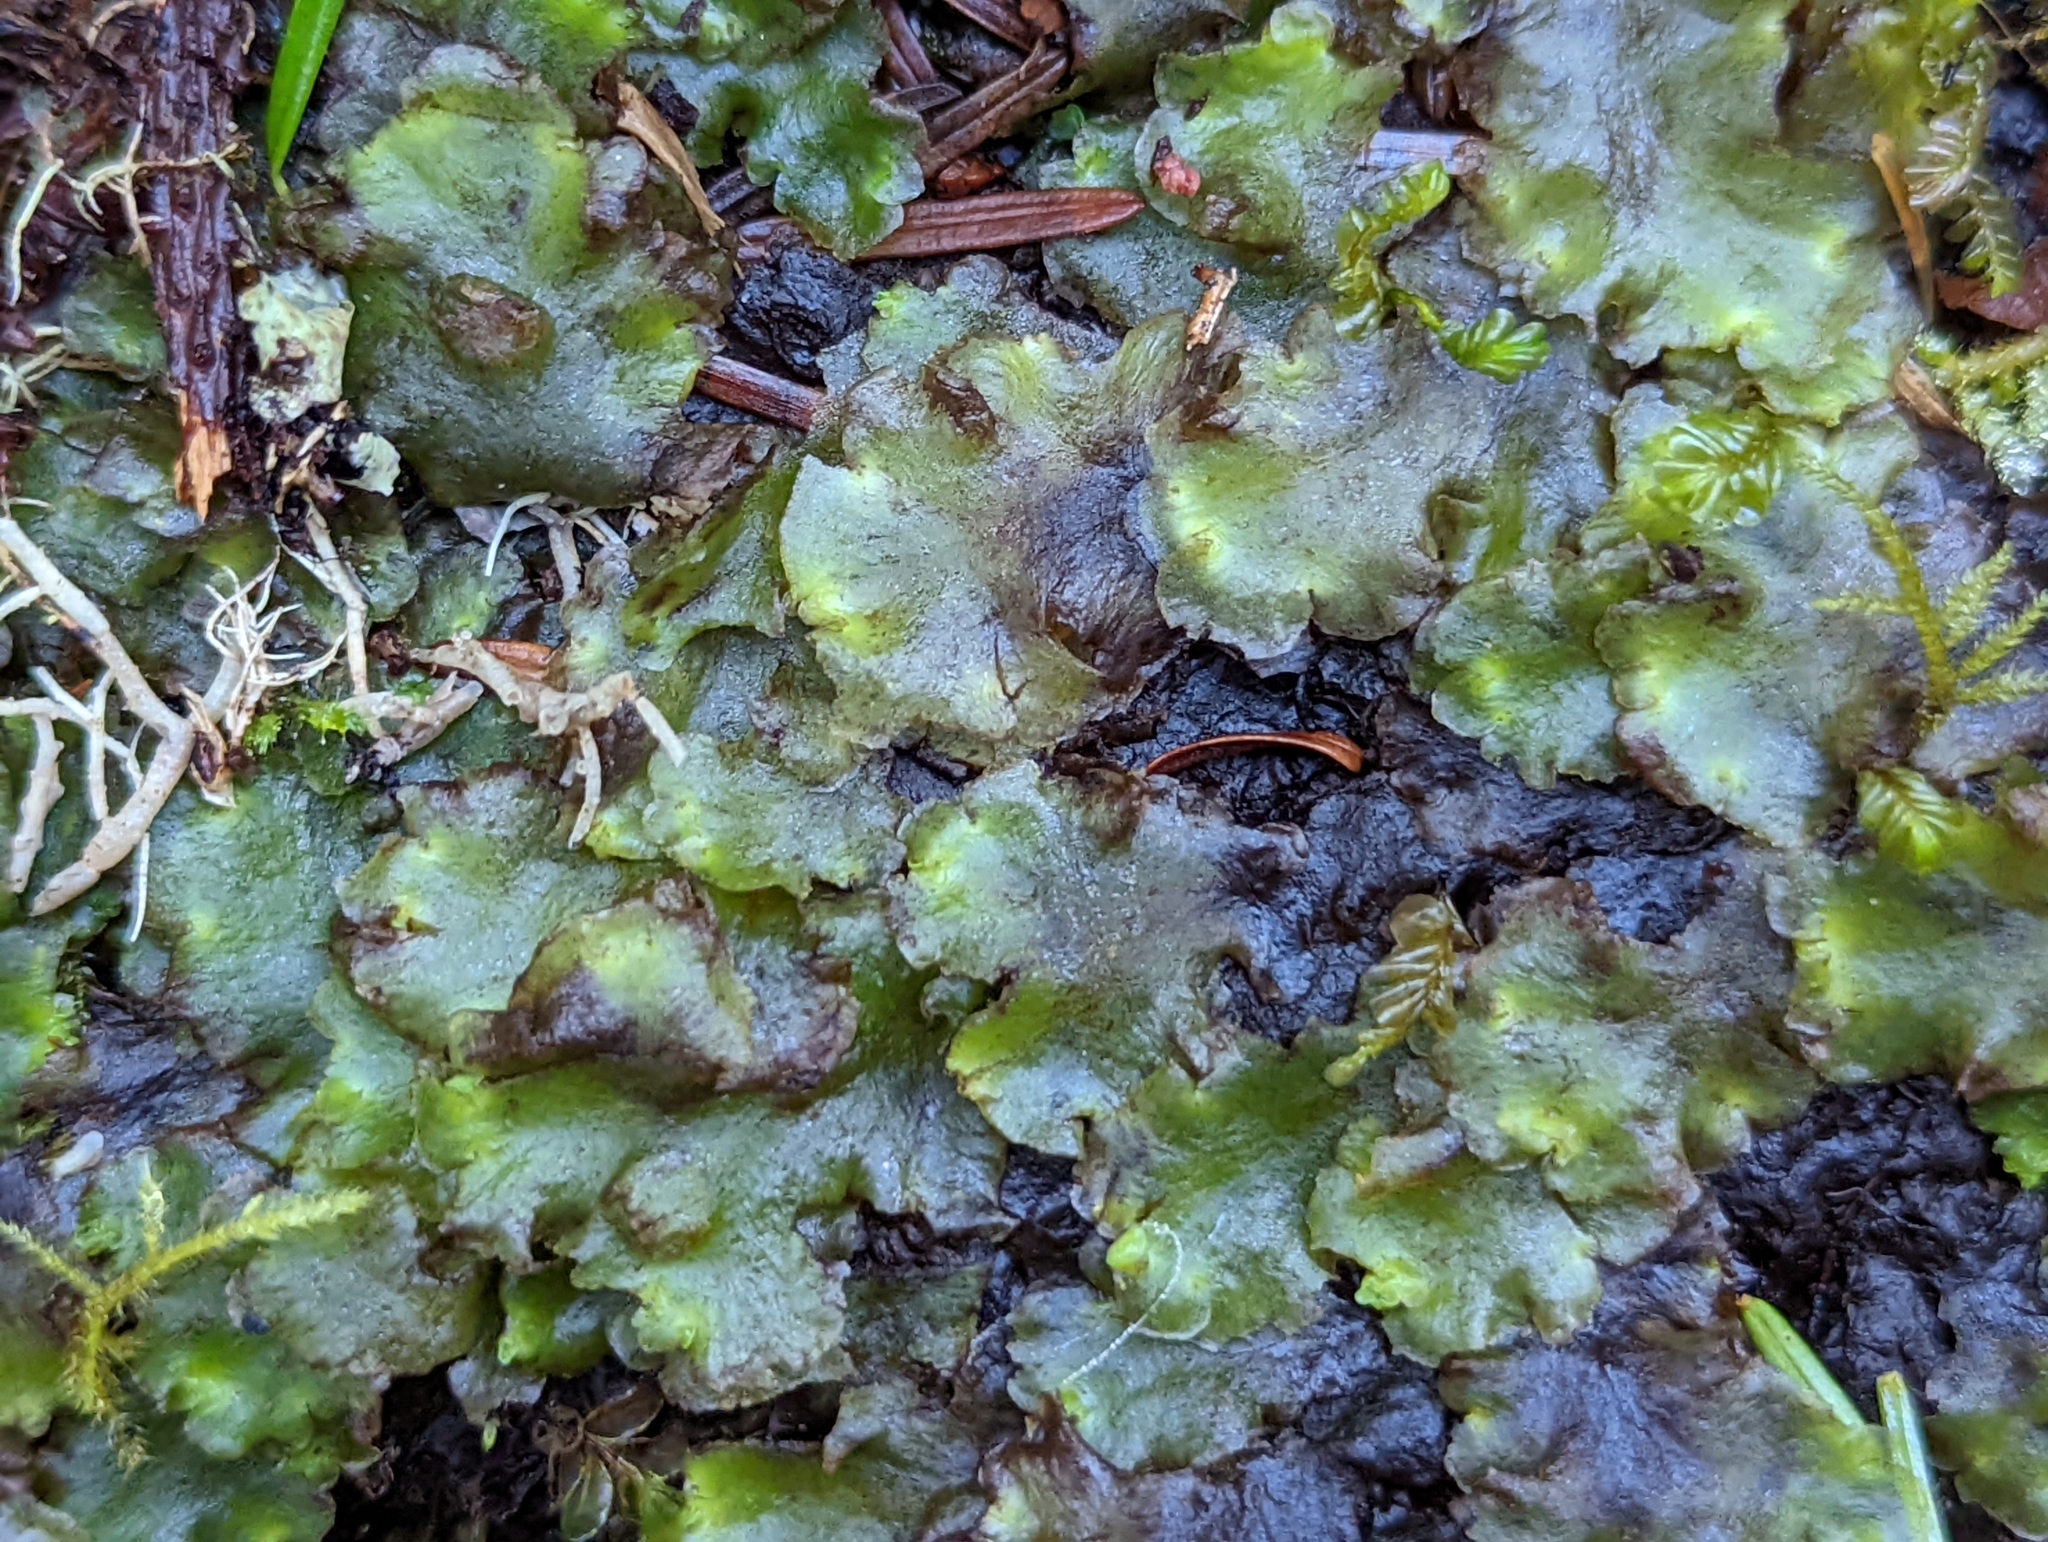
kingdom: Plantae
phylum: Marchantiophyta
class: Jungermanniopsida
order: Pelliales
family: Pelliaceae
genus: Pellia
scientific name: Pellia neesiana
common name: Nees  pellia
